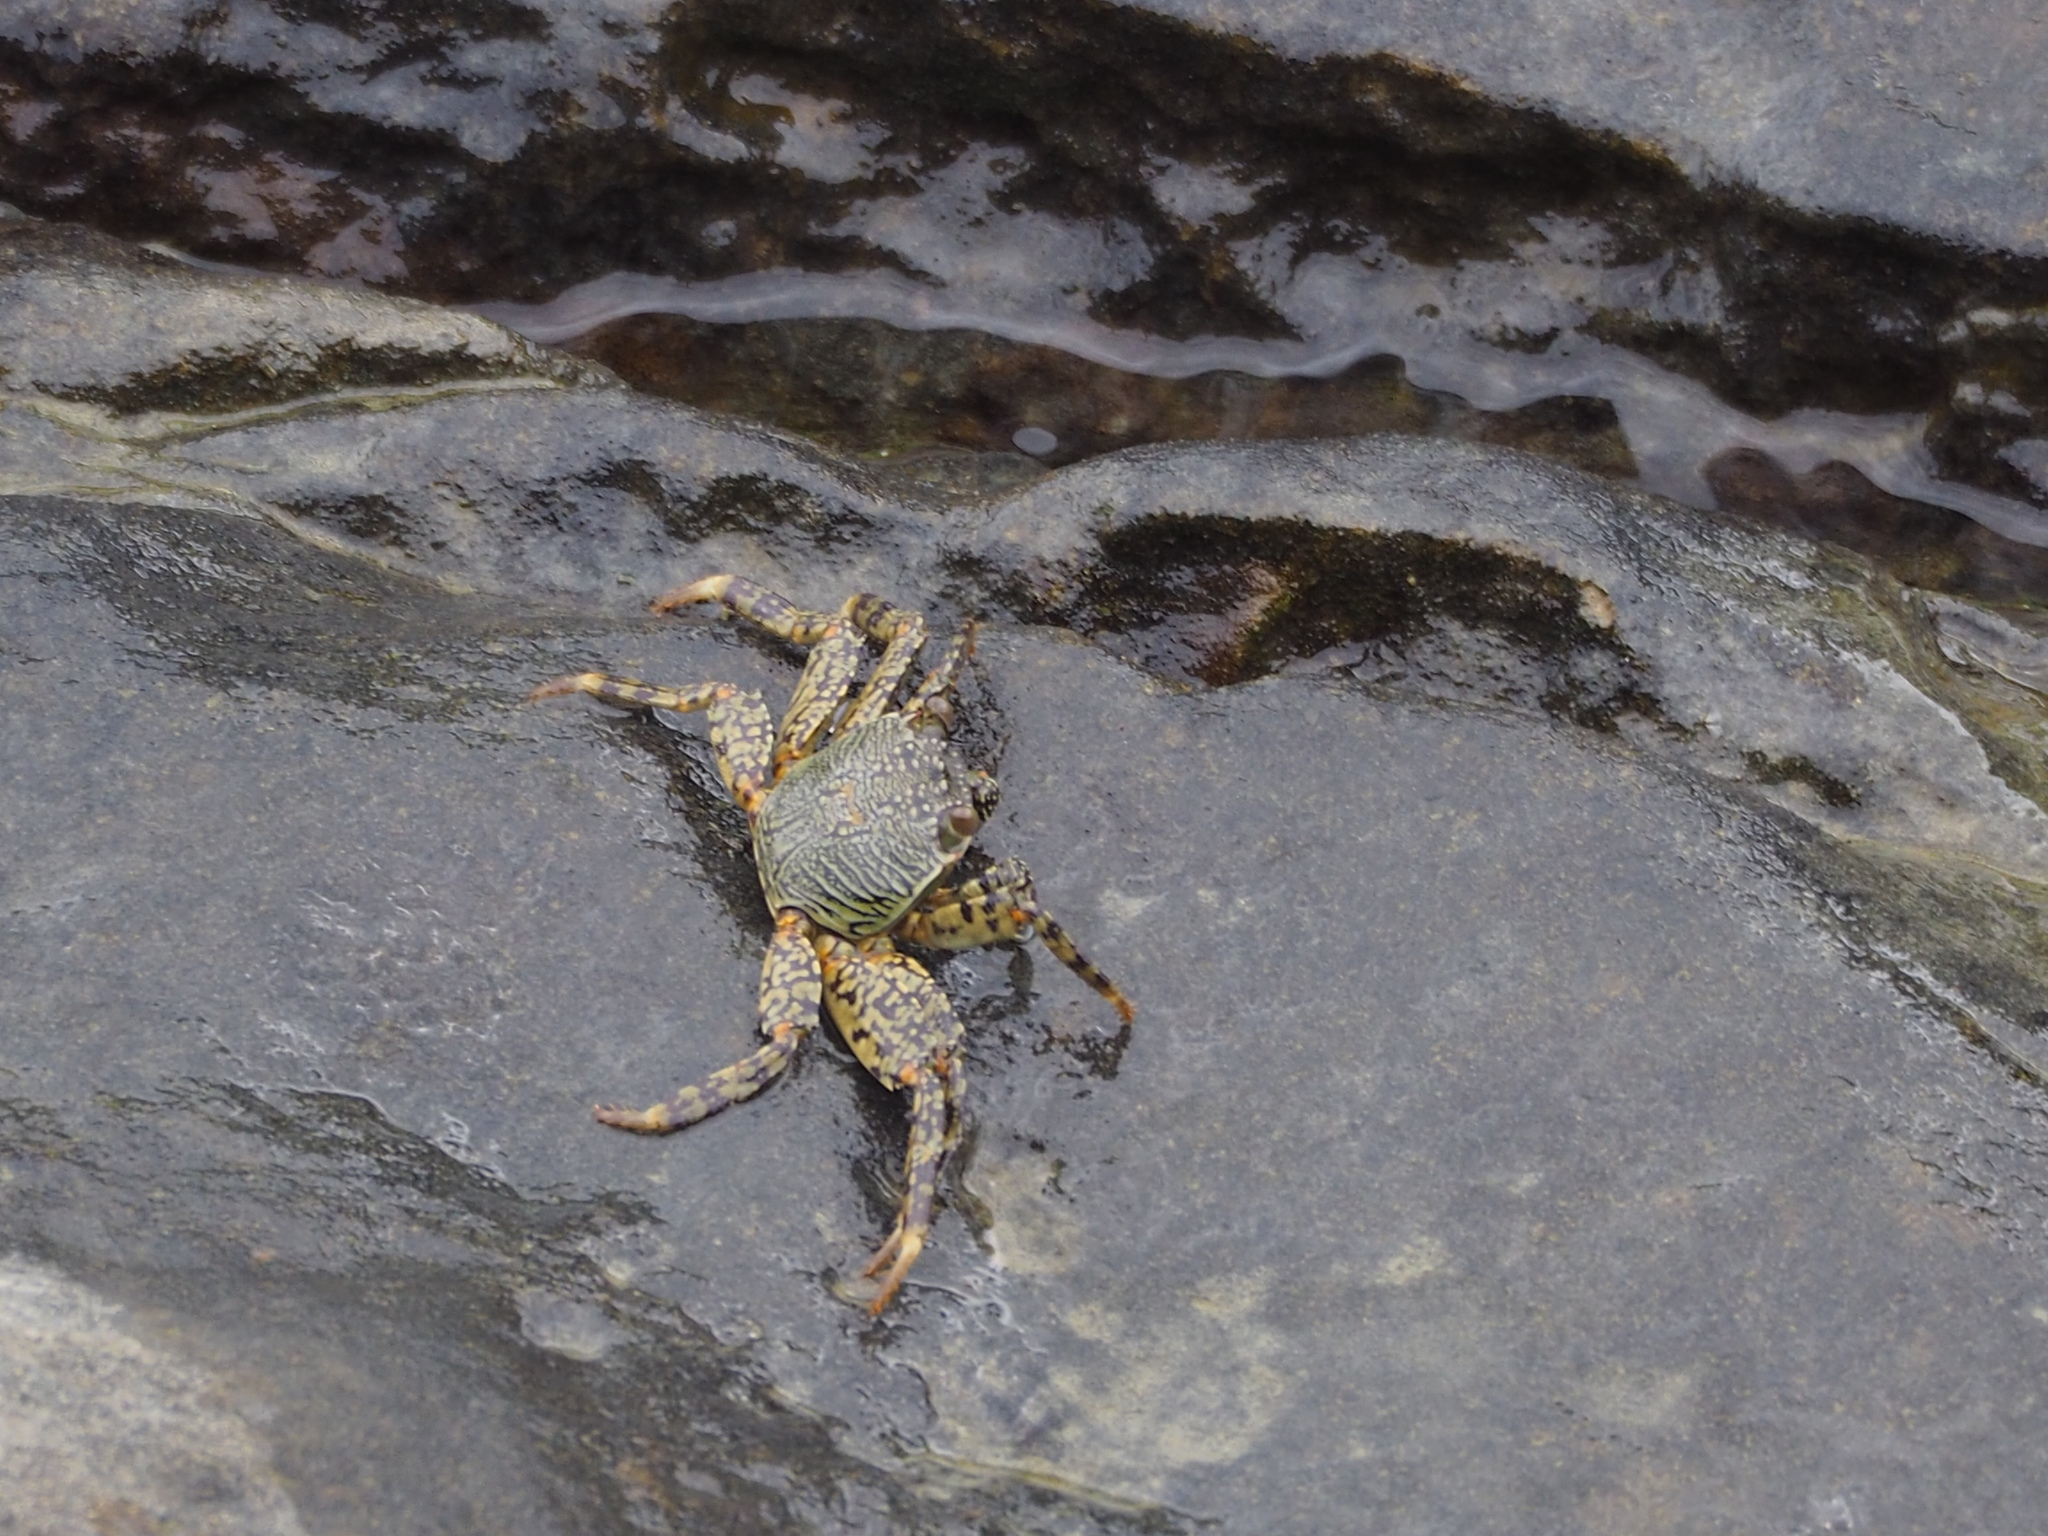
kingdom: Animalia
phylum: Arthropoda
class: Malacostraca
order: Decapoda
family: Grapsidae
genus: Grapsus
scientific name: Grapsus albolineatus
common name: Mottled lightfoot crab
